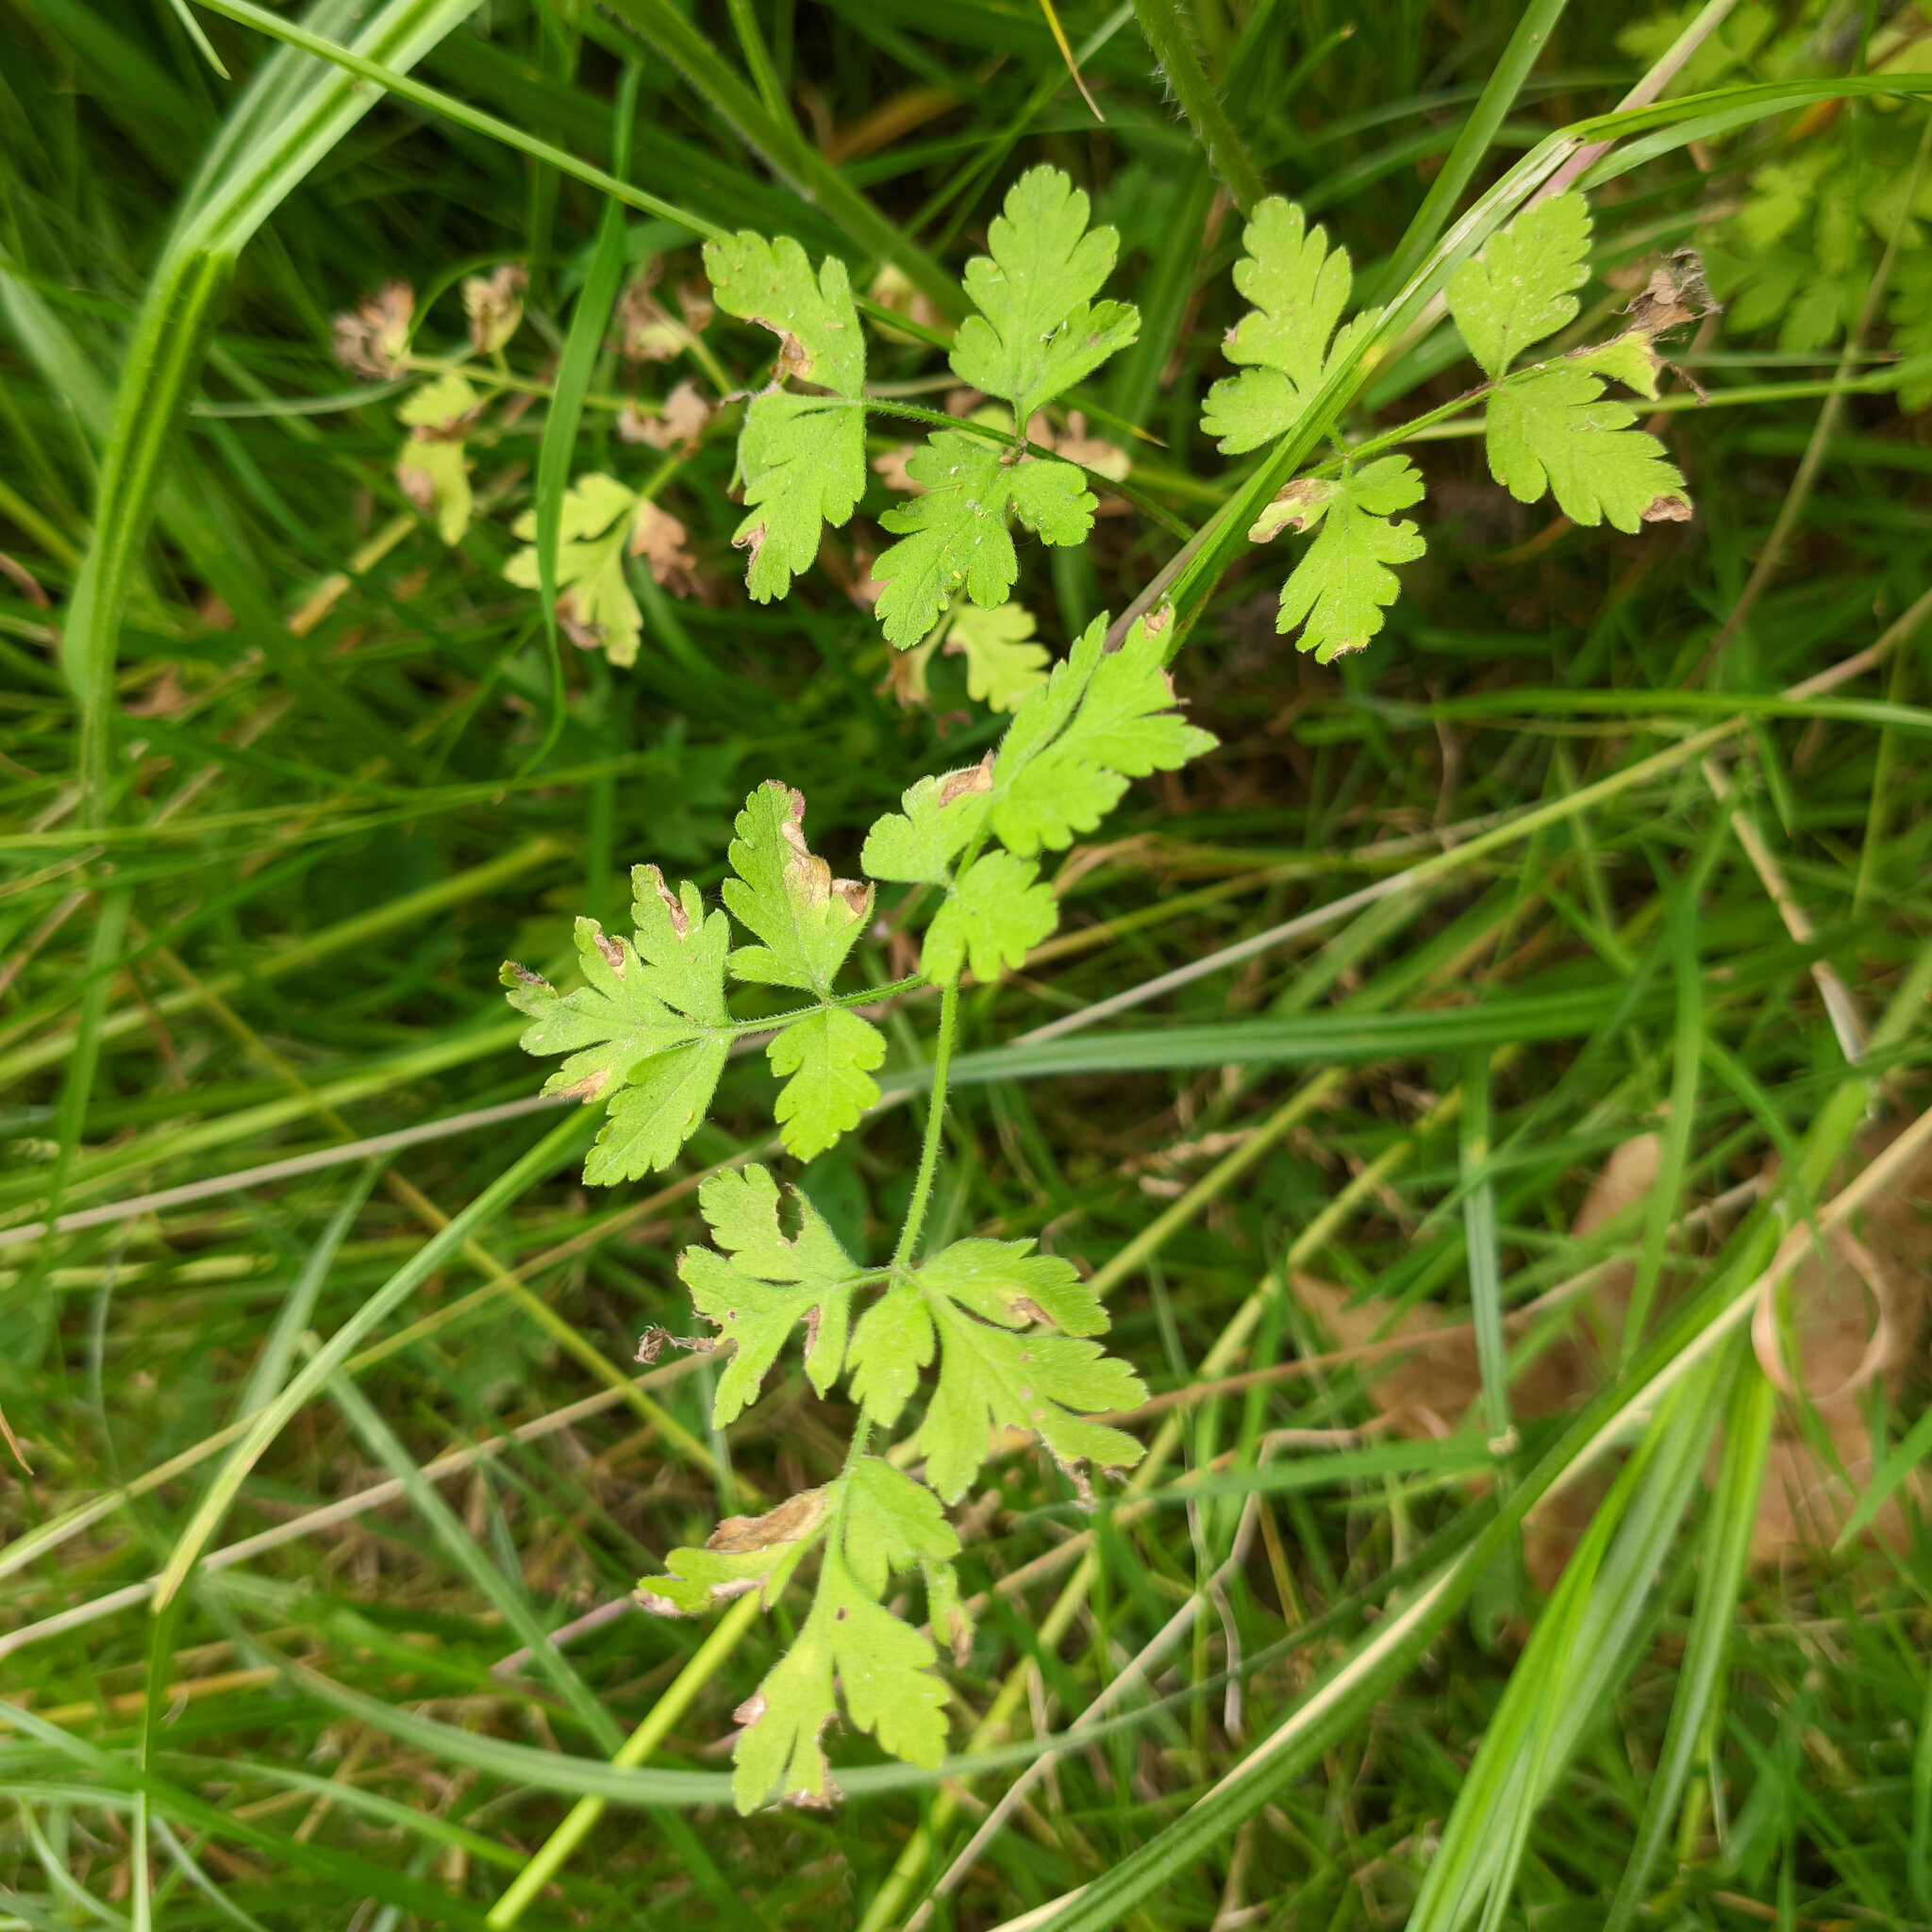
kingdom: Plantae
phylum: Tracheophyta
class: Magnoliopsida
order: Apiales
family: Apiaceae
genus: Chaerophyllum
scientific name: Chaerophyllum temulum
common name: Rough chervil
